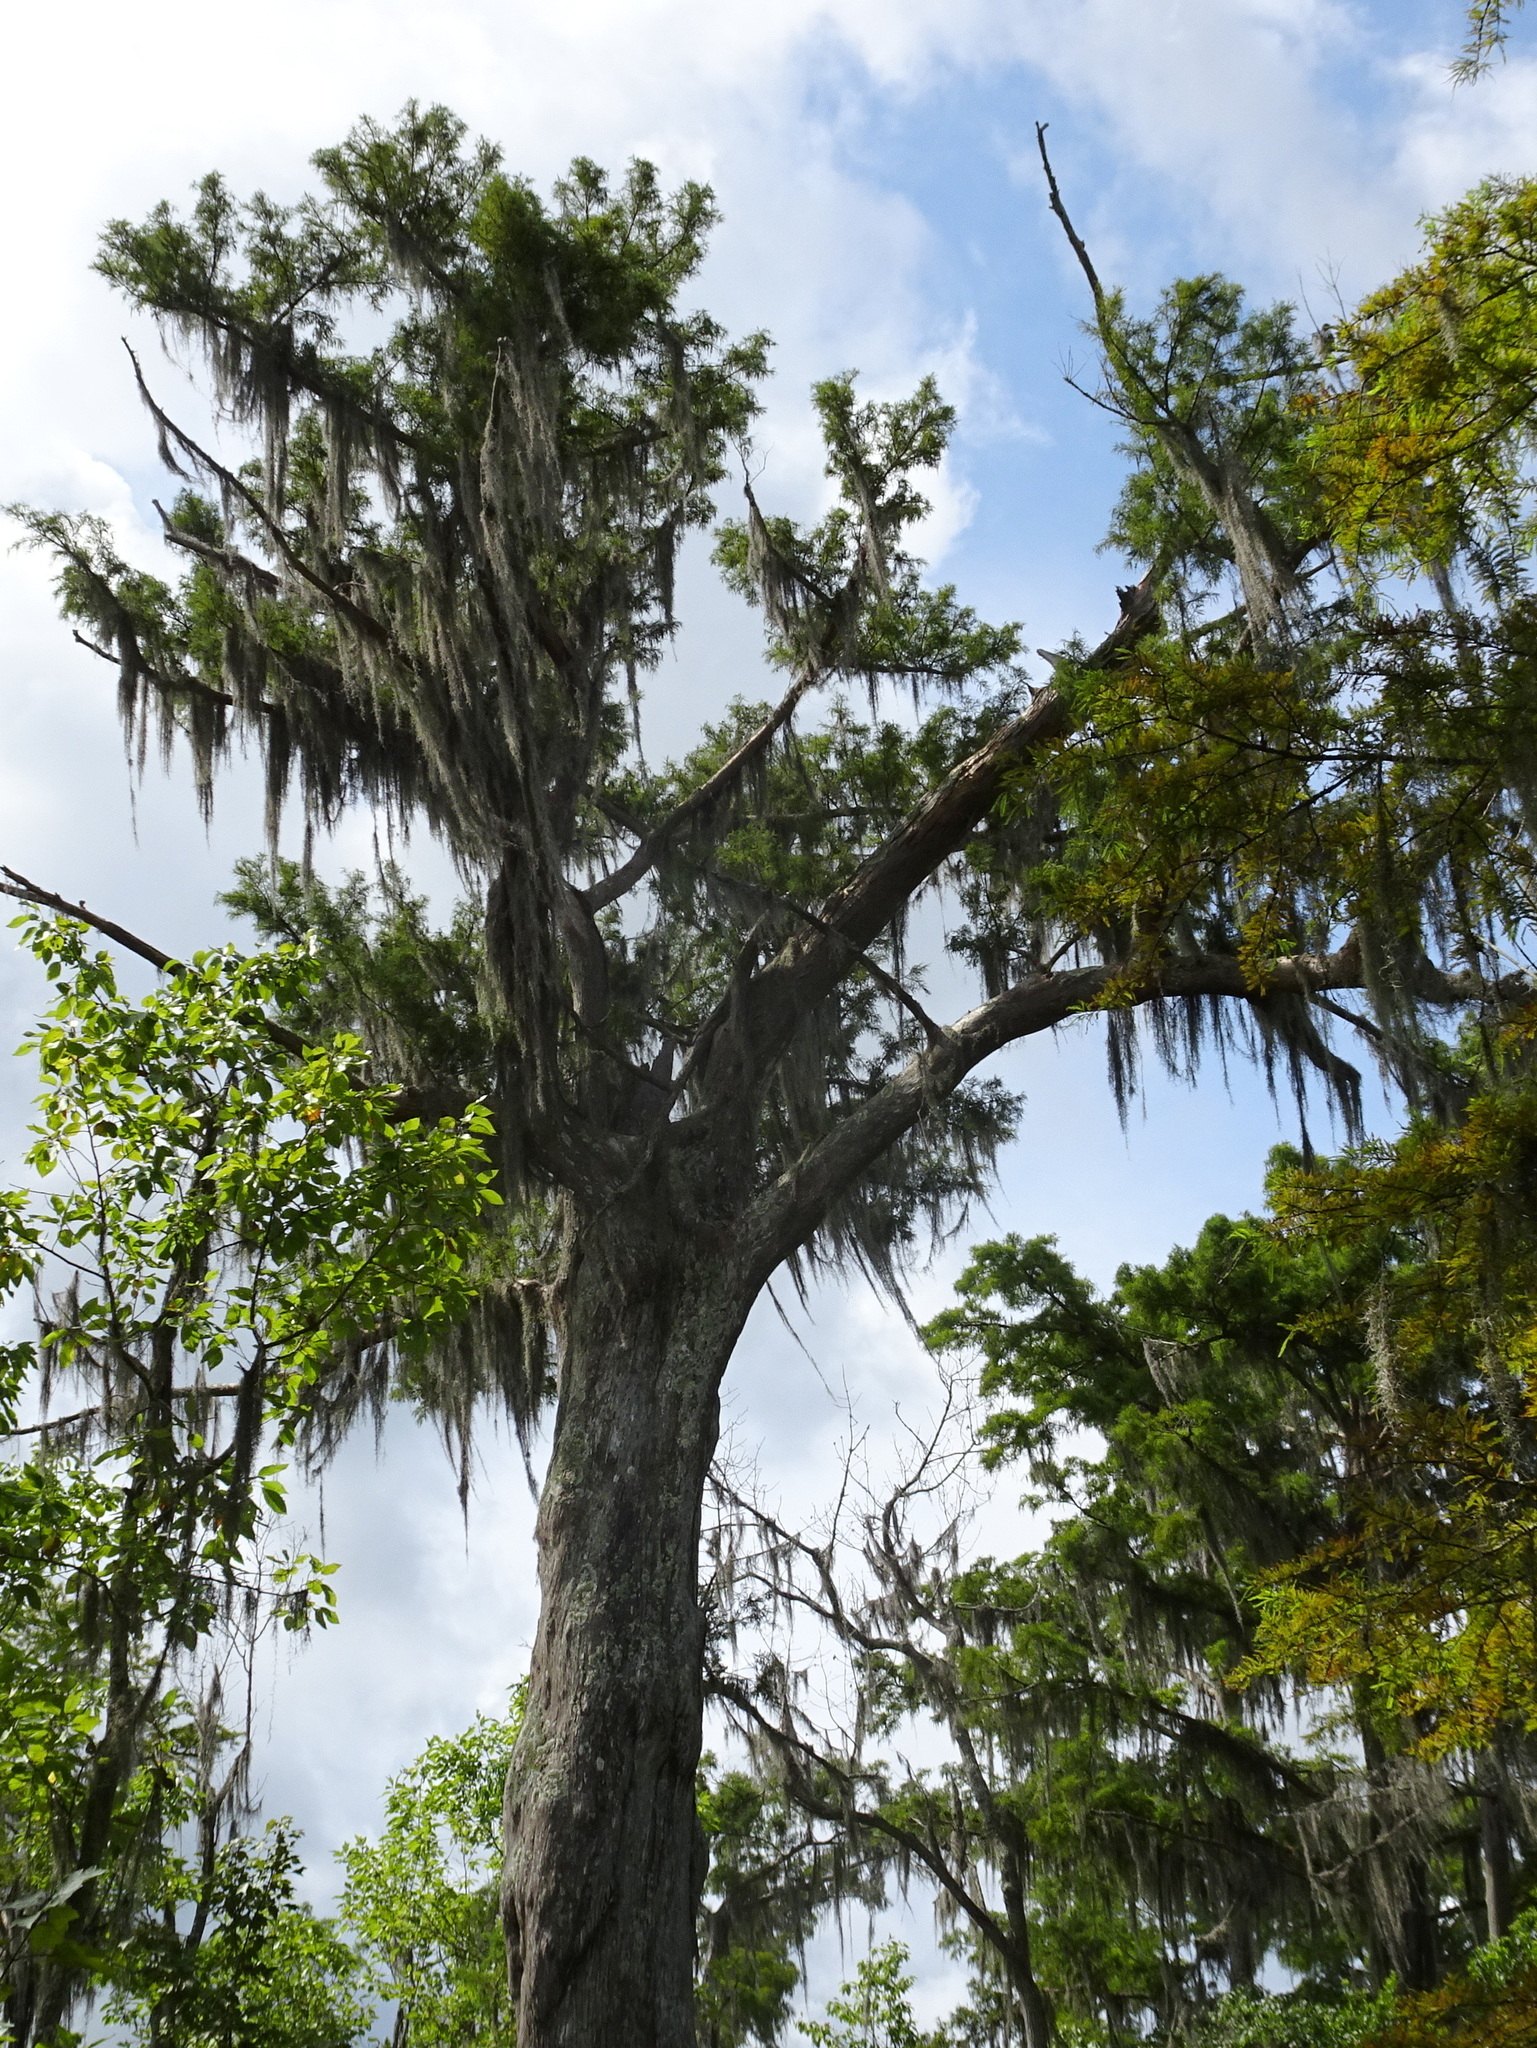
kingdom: Plantae
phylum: Tracheophyta
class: Pinopsida
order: Pinales
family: Cupressaceae
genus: Taxodium
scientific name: Taxodium distichum
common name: Bald cypress
